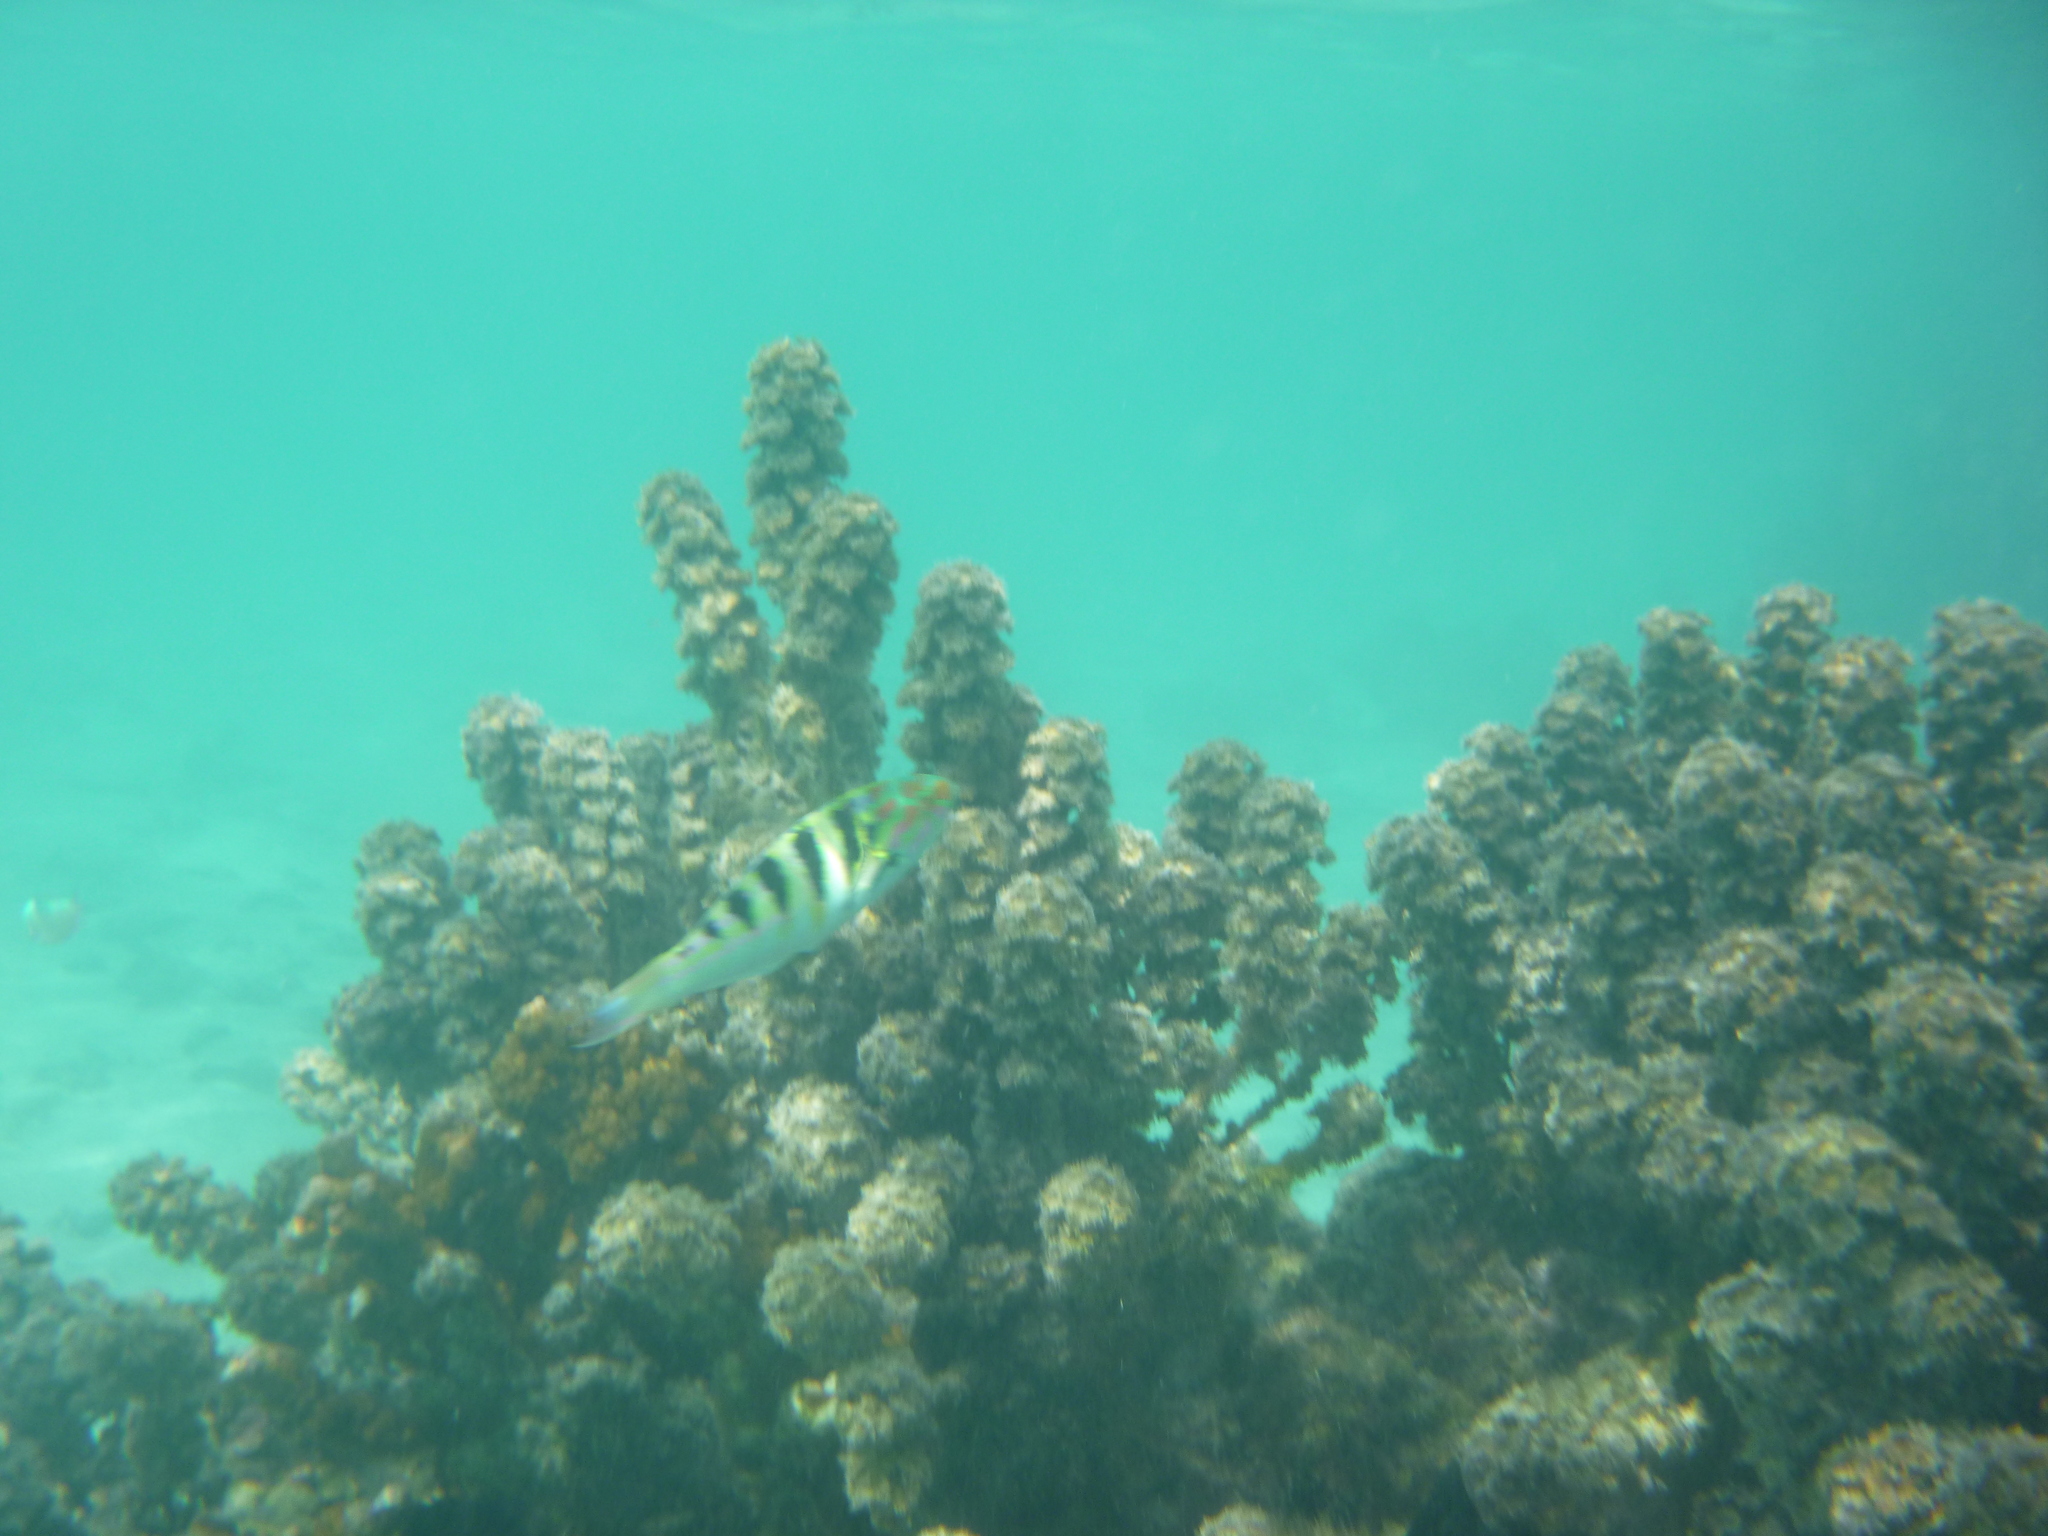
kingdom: Animalia
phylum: Chordata
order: Perciformes
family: Labridae
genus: Thalassoma
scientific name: Thalassoma hardwicke
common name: Sixbar wrasse
